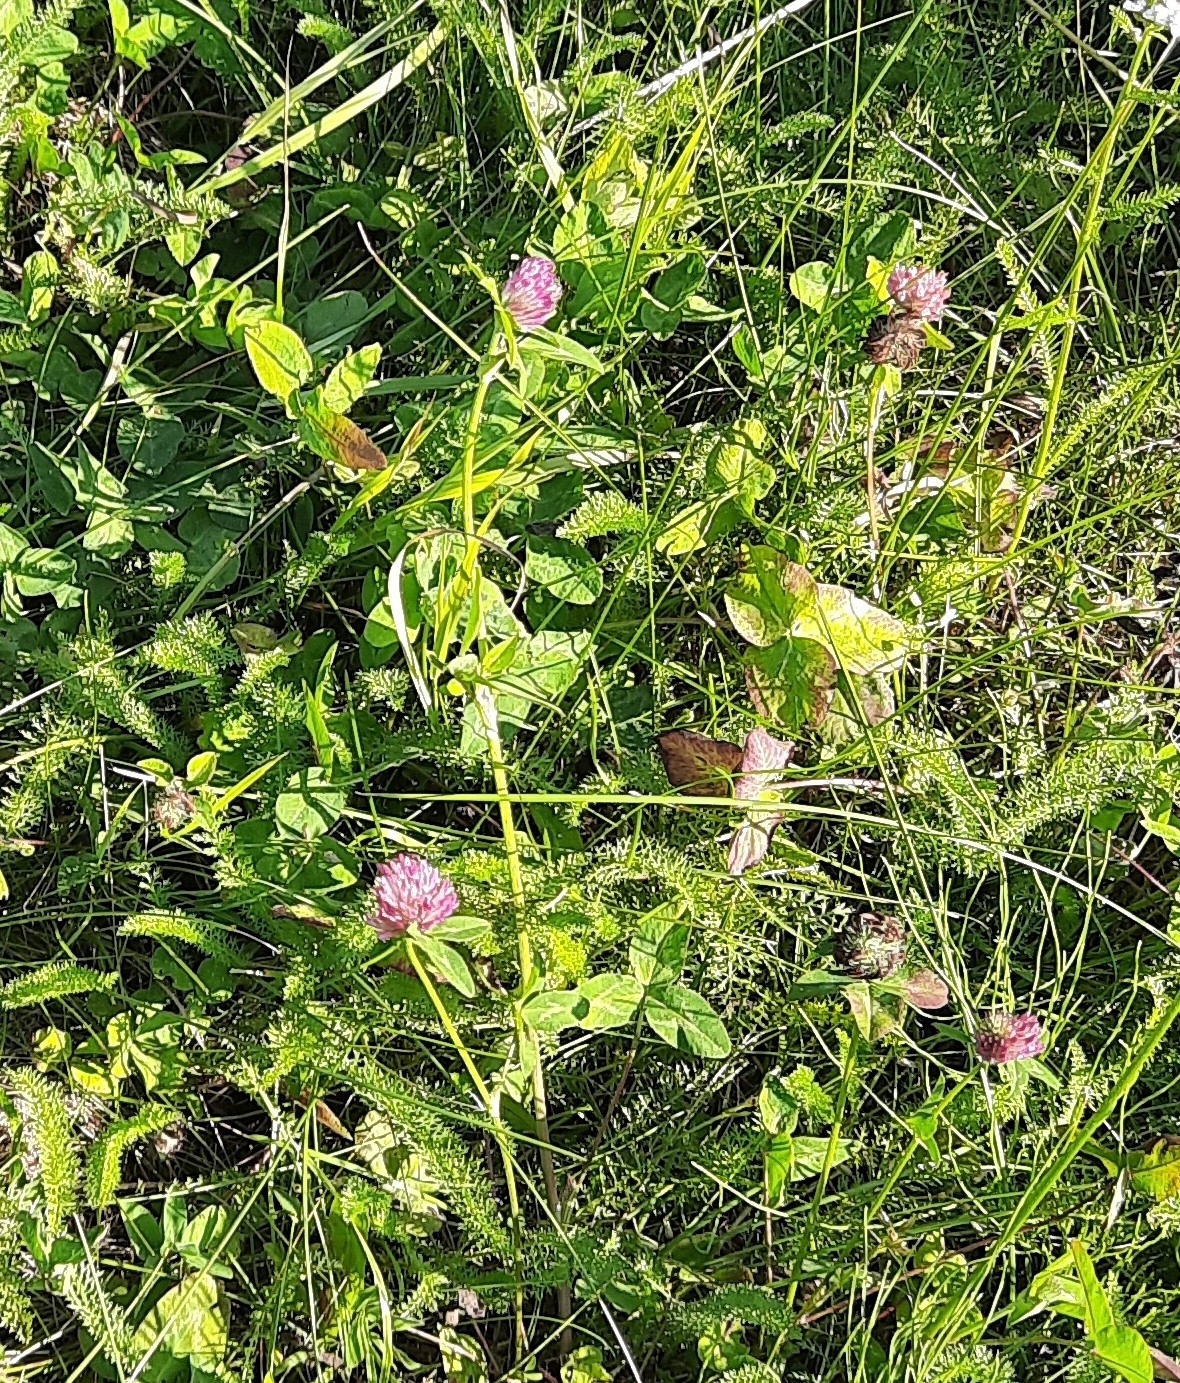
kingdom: Plantae
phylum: Tracheophyta
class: Magnoliopsida
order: Fabales
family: Fabaceae
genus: Trifolium
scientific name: Trifolium pratense
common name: Red clover
